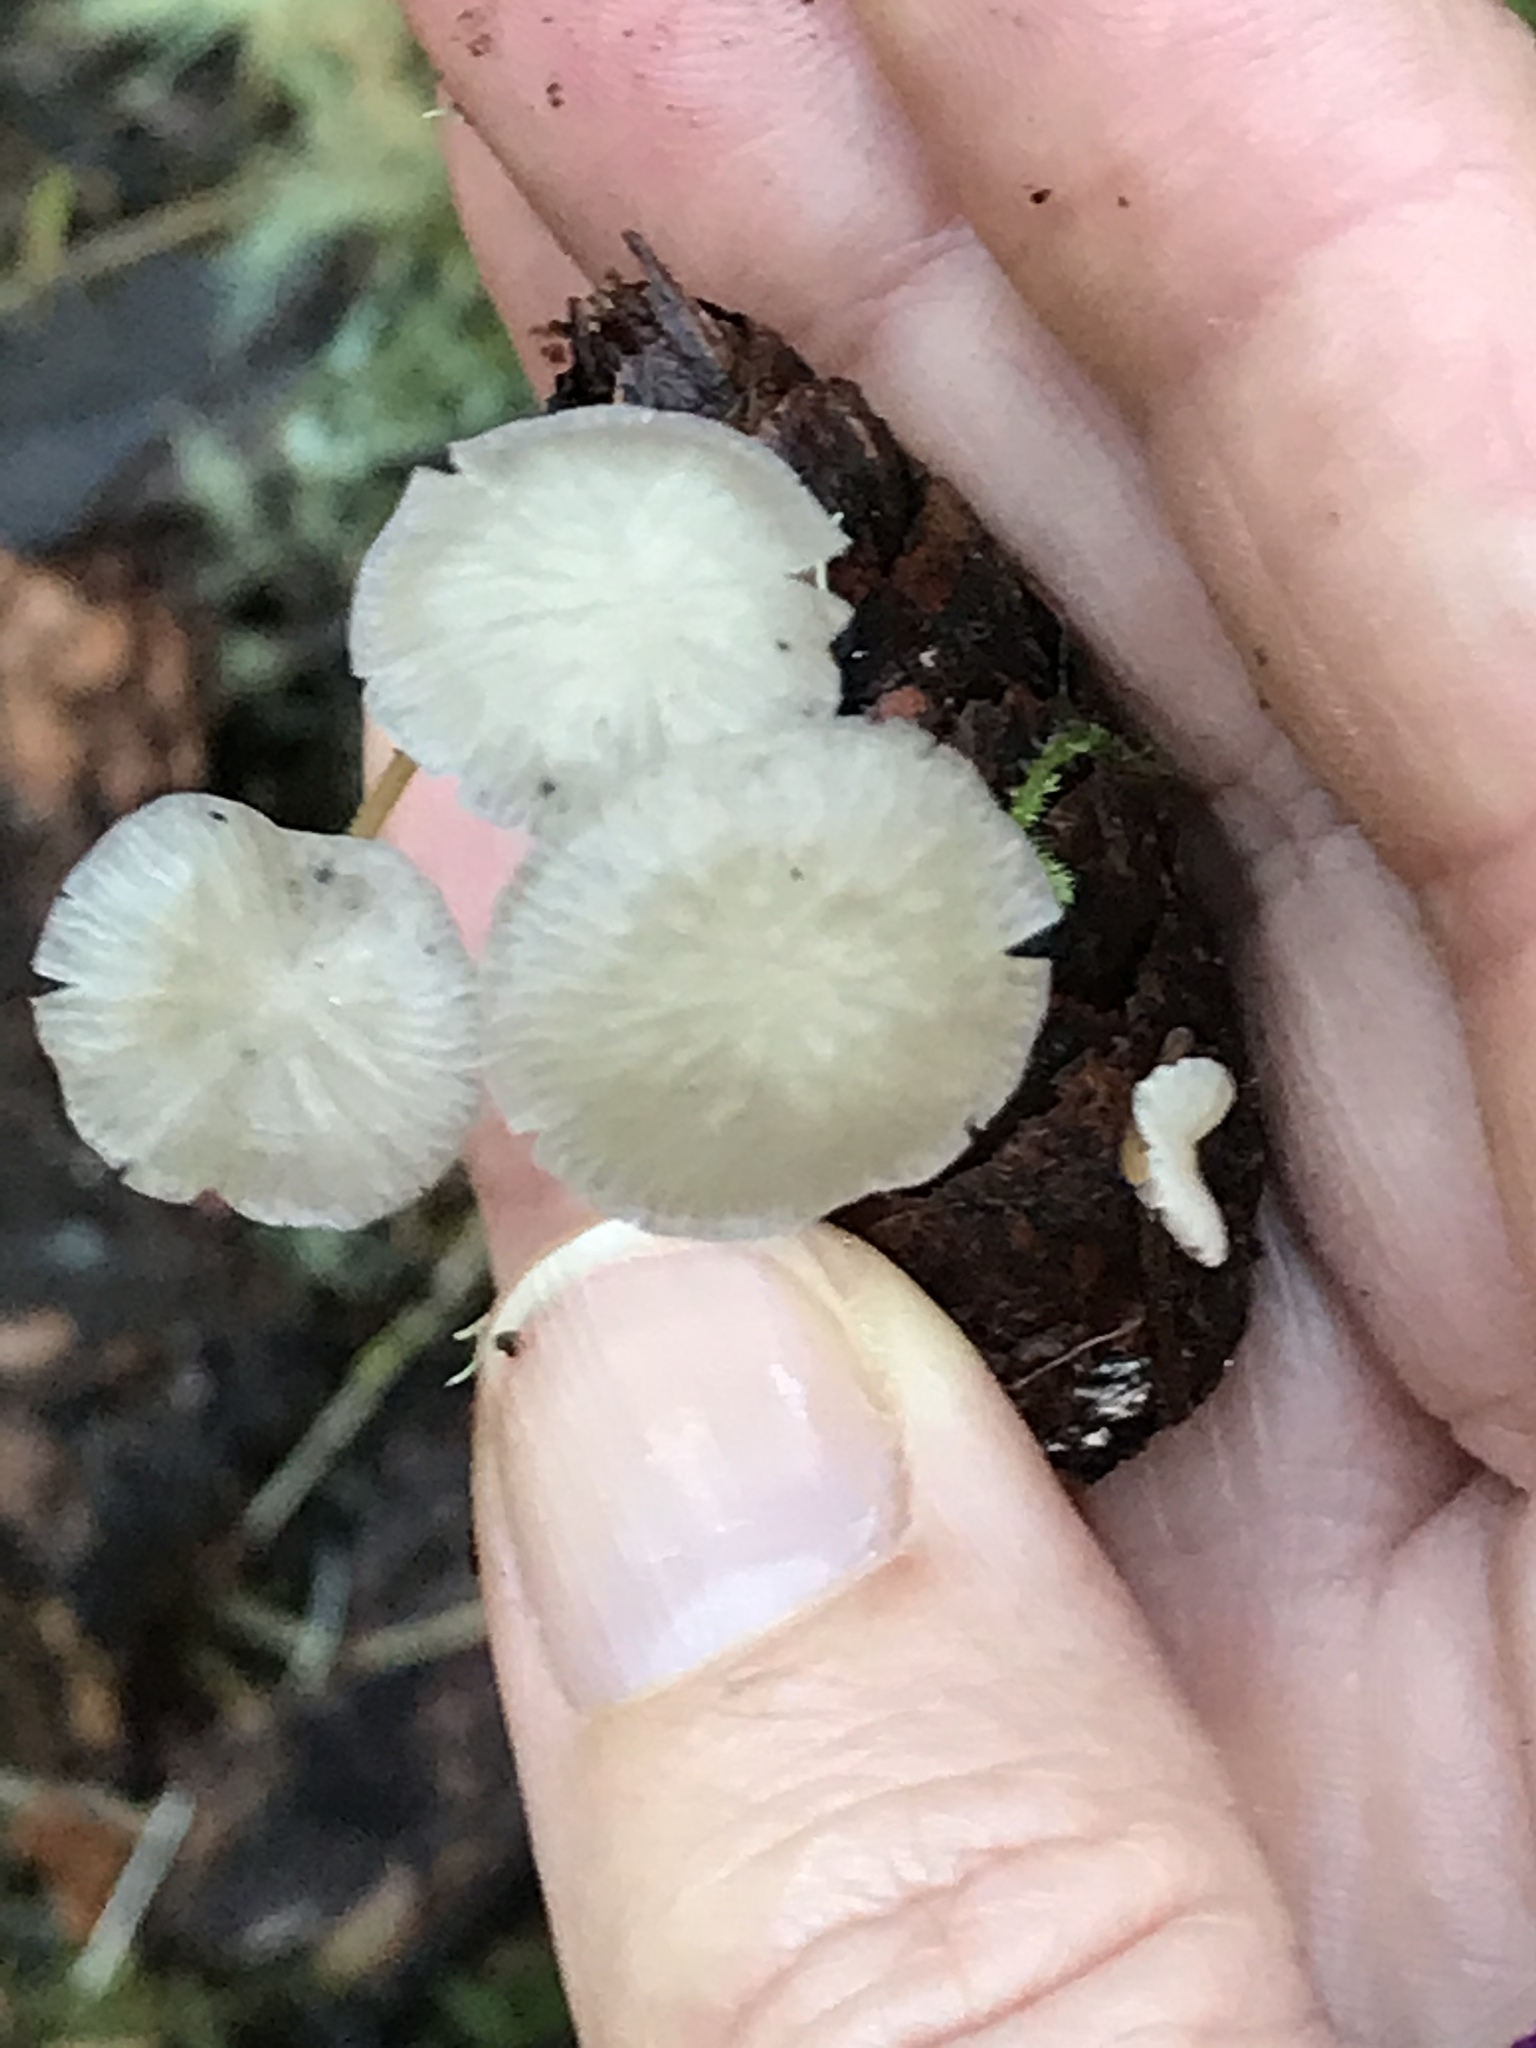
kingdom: Fungi
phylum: Basidiomycota
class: Agaricomycetes
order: Agaricales
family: Physalacriaceae
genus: Strobilurus
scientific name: Strobilurus trullisatus
